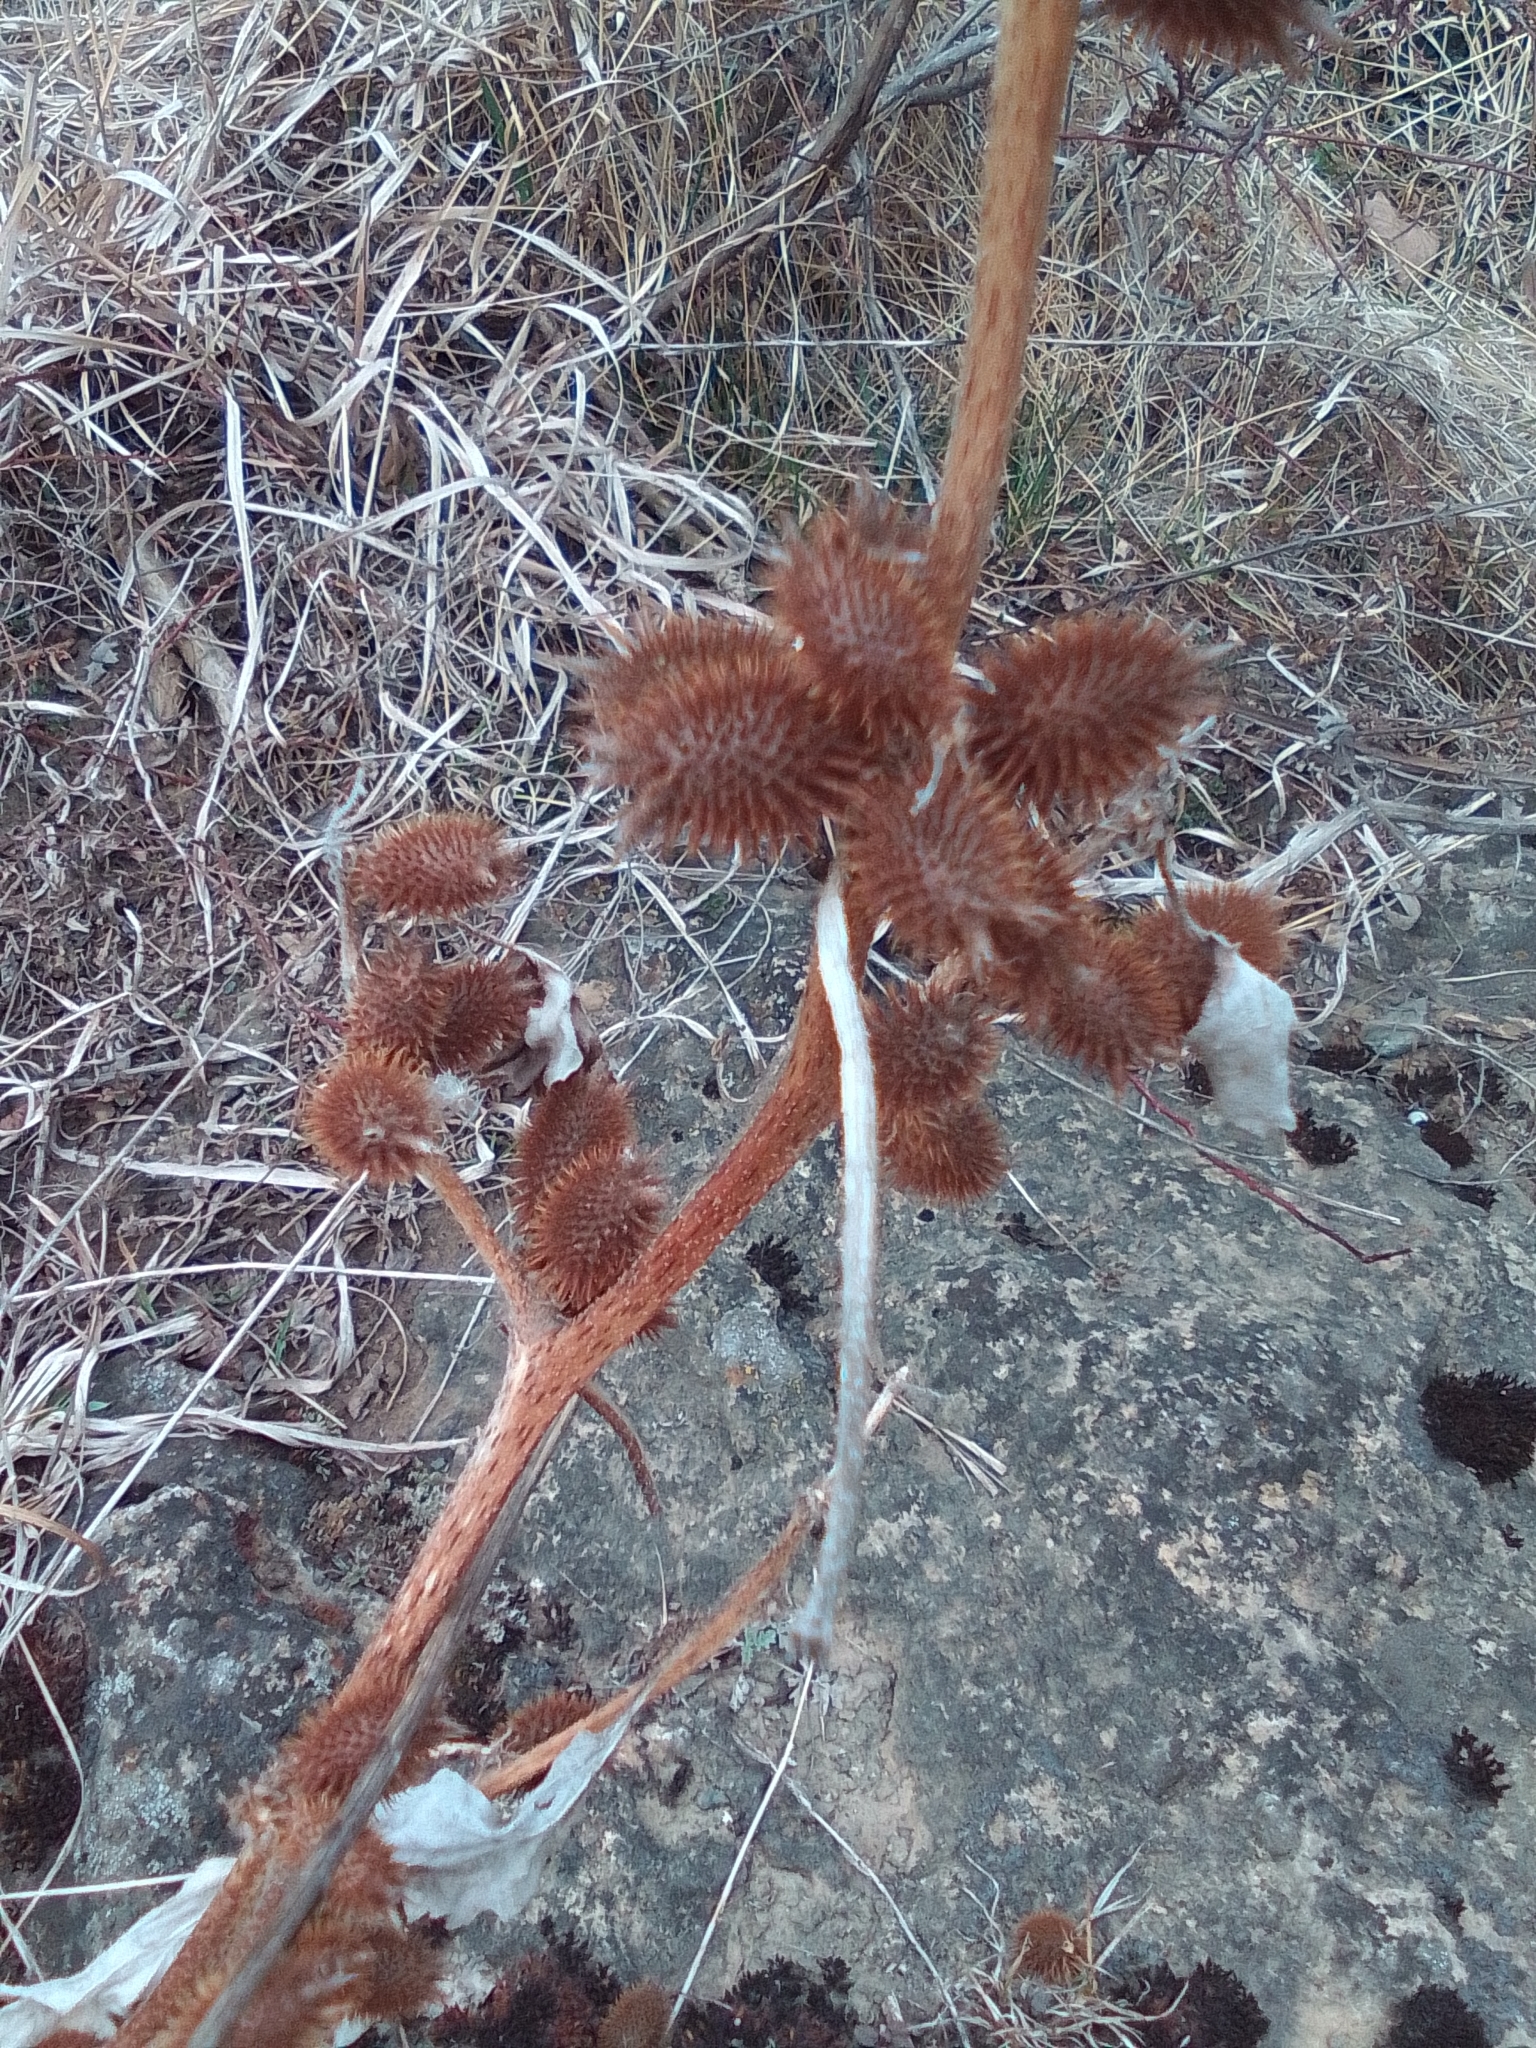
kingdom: Plantae
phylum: Tracheophyta
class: Magnoliopsida
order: Asterales
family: Asteraceae
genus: Xanthium
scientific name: Xanthium orientale
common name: Californian burr
